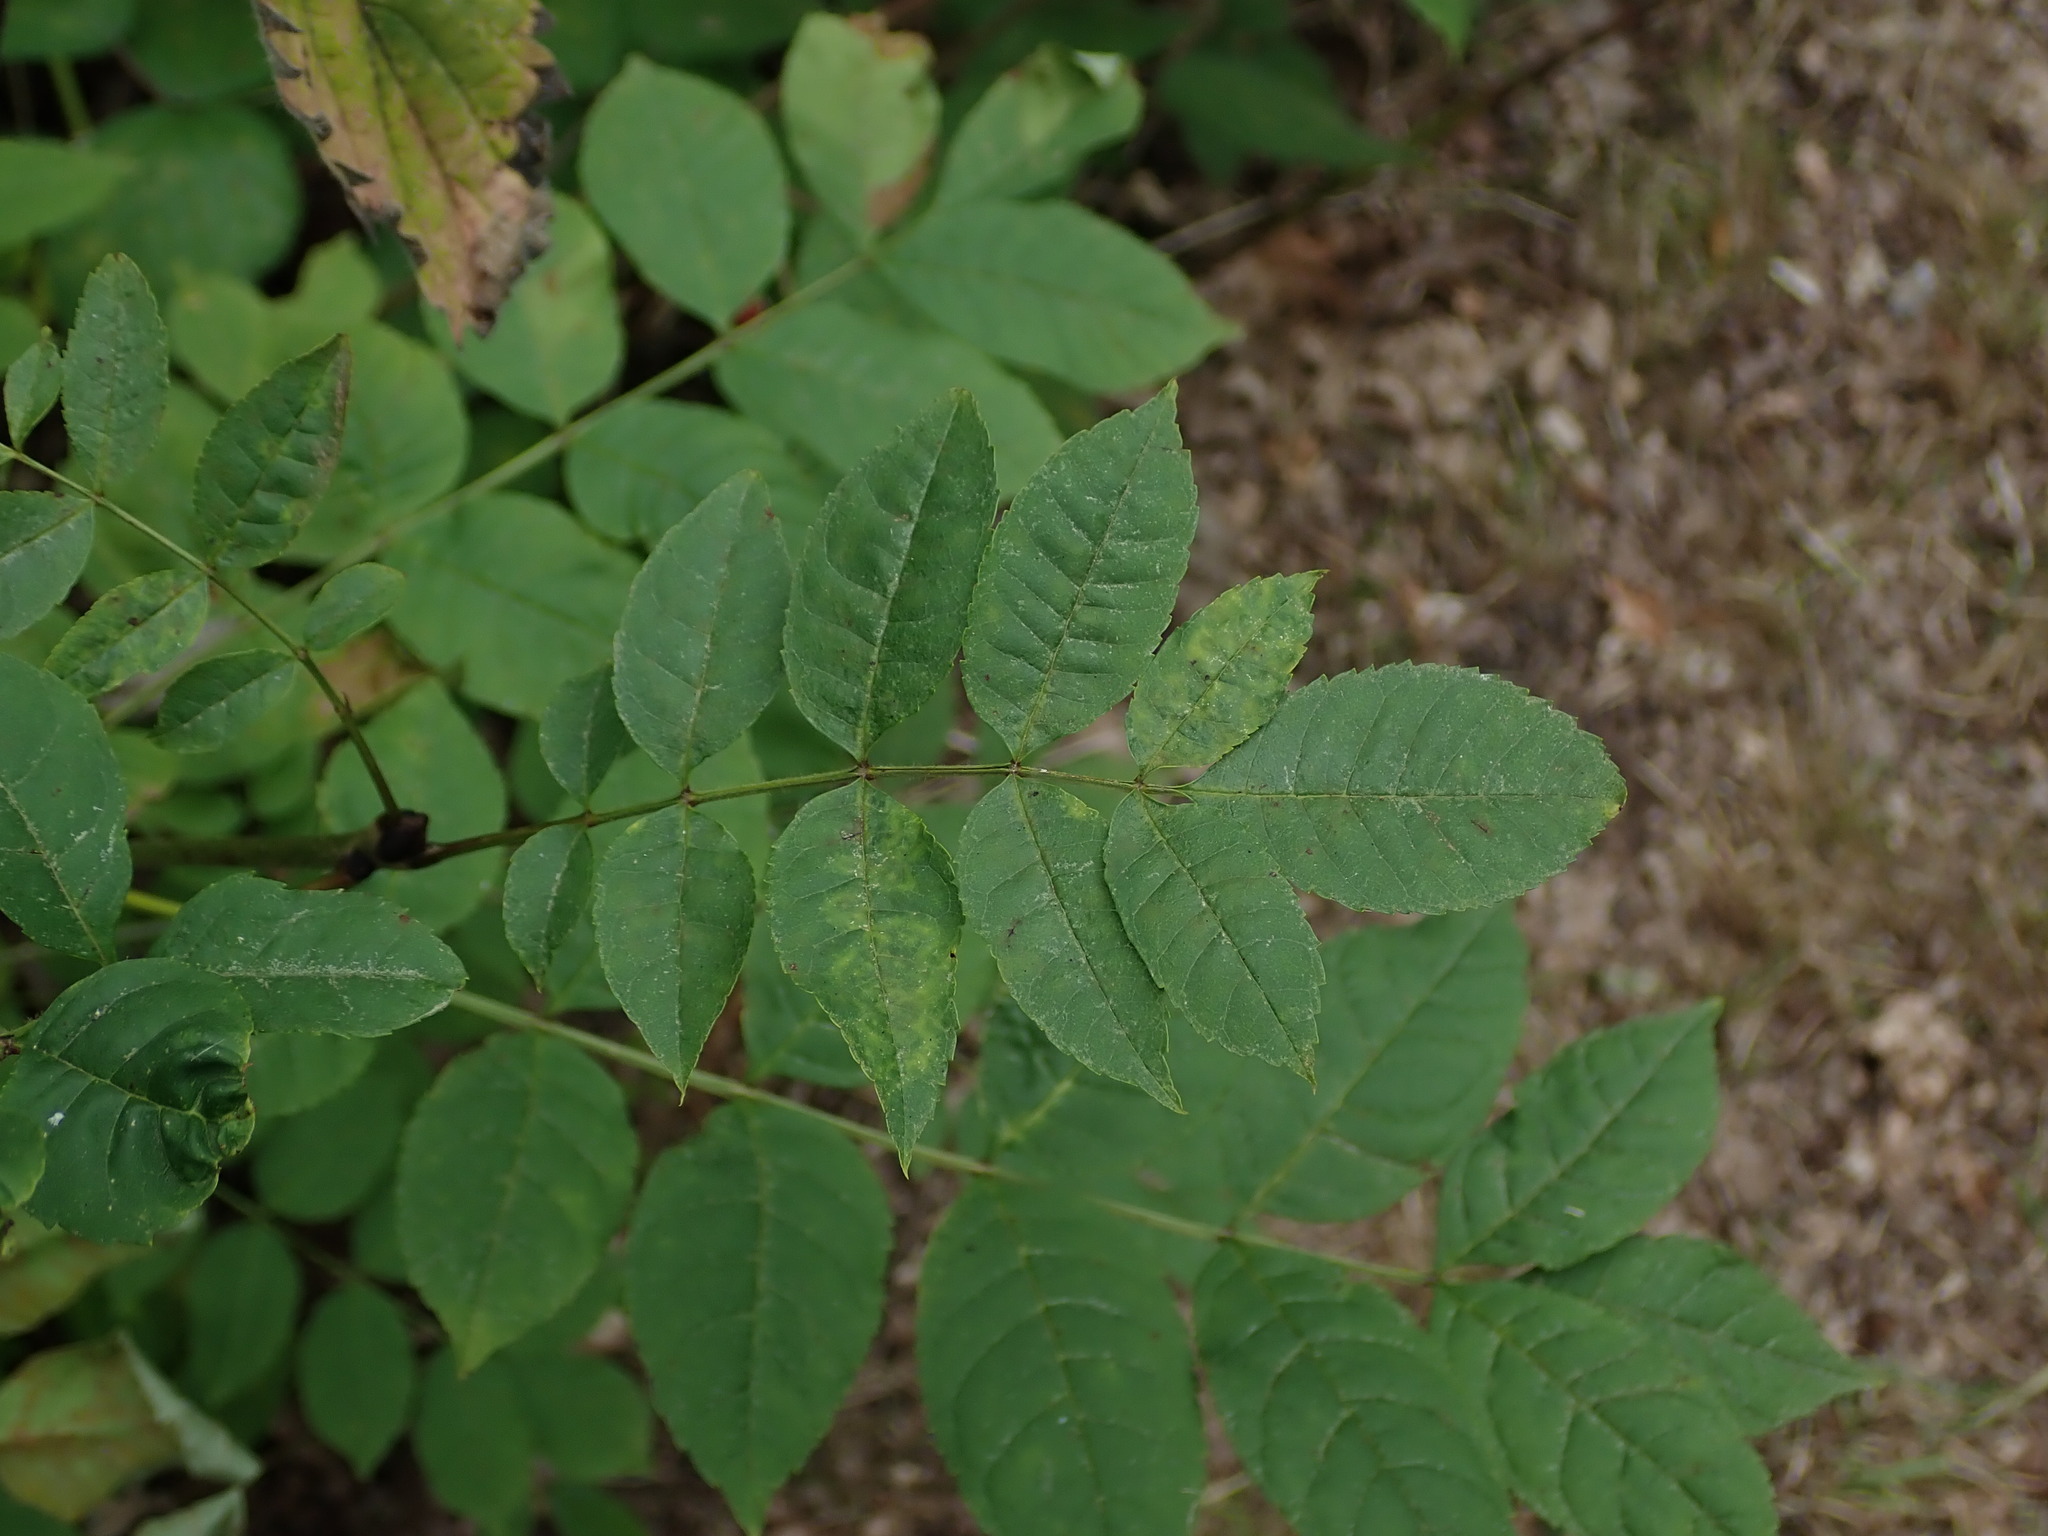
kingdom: Plantae
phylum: Tracheophyta
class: Magnoliopsida
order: Lamiales
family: Oleaceae
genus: Fraxinus
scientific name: Fraxinus excelsior
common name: European ash
